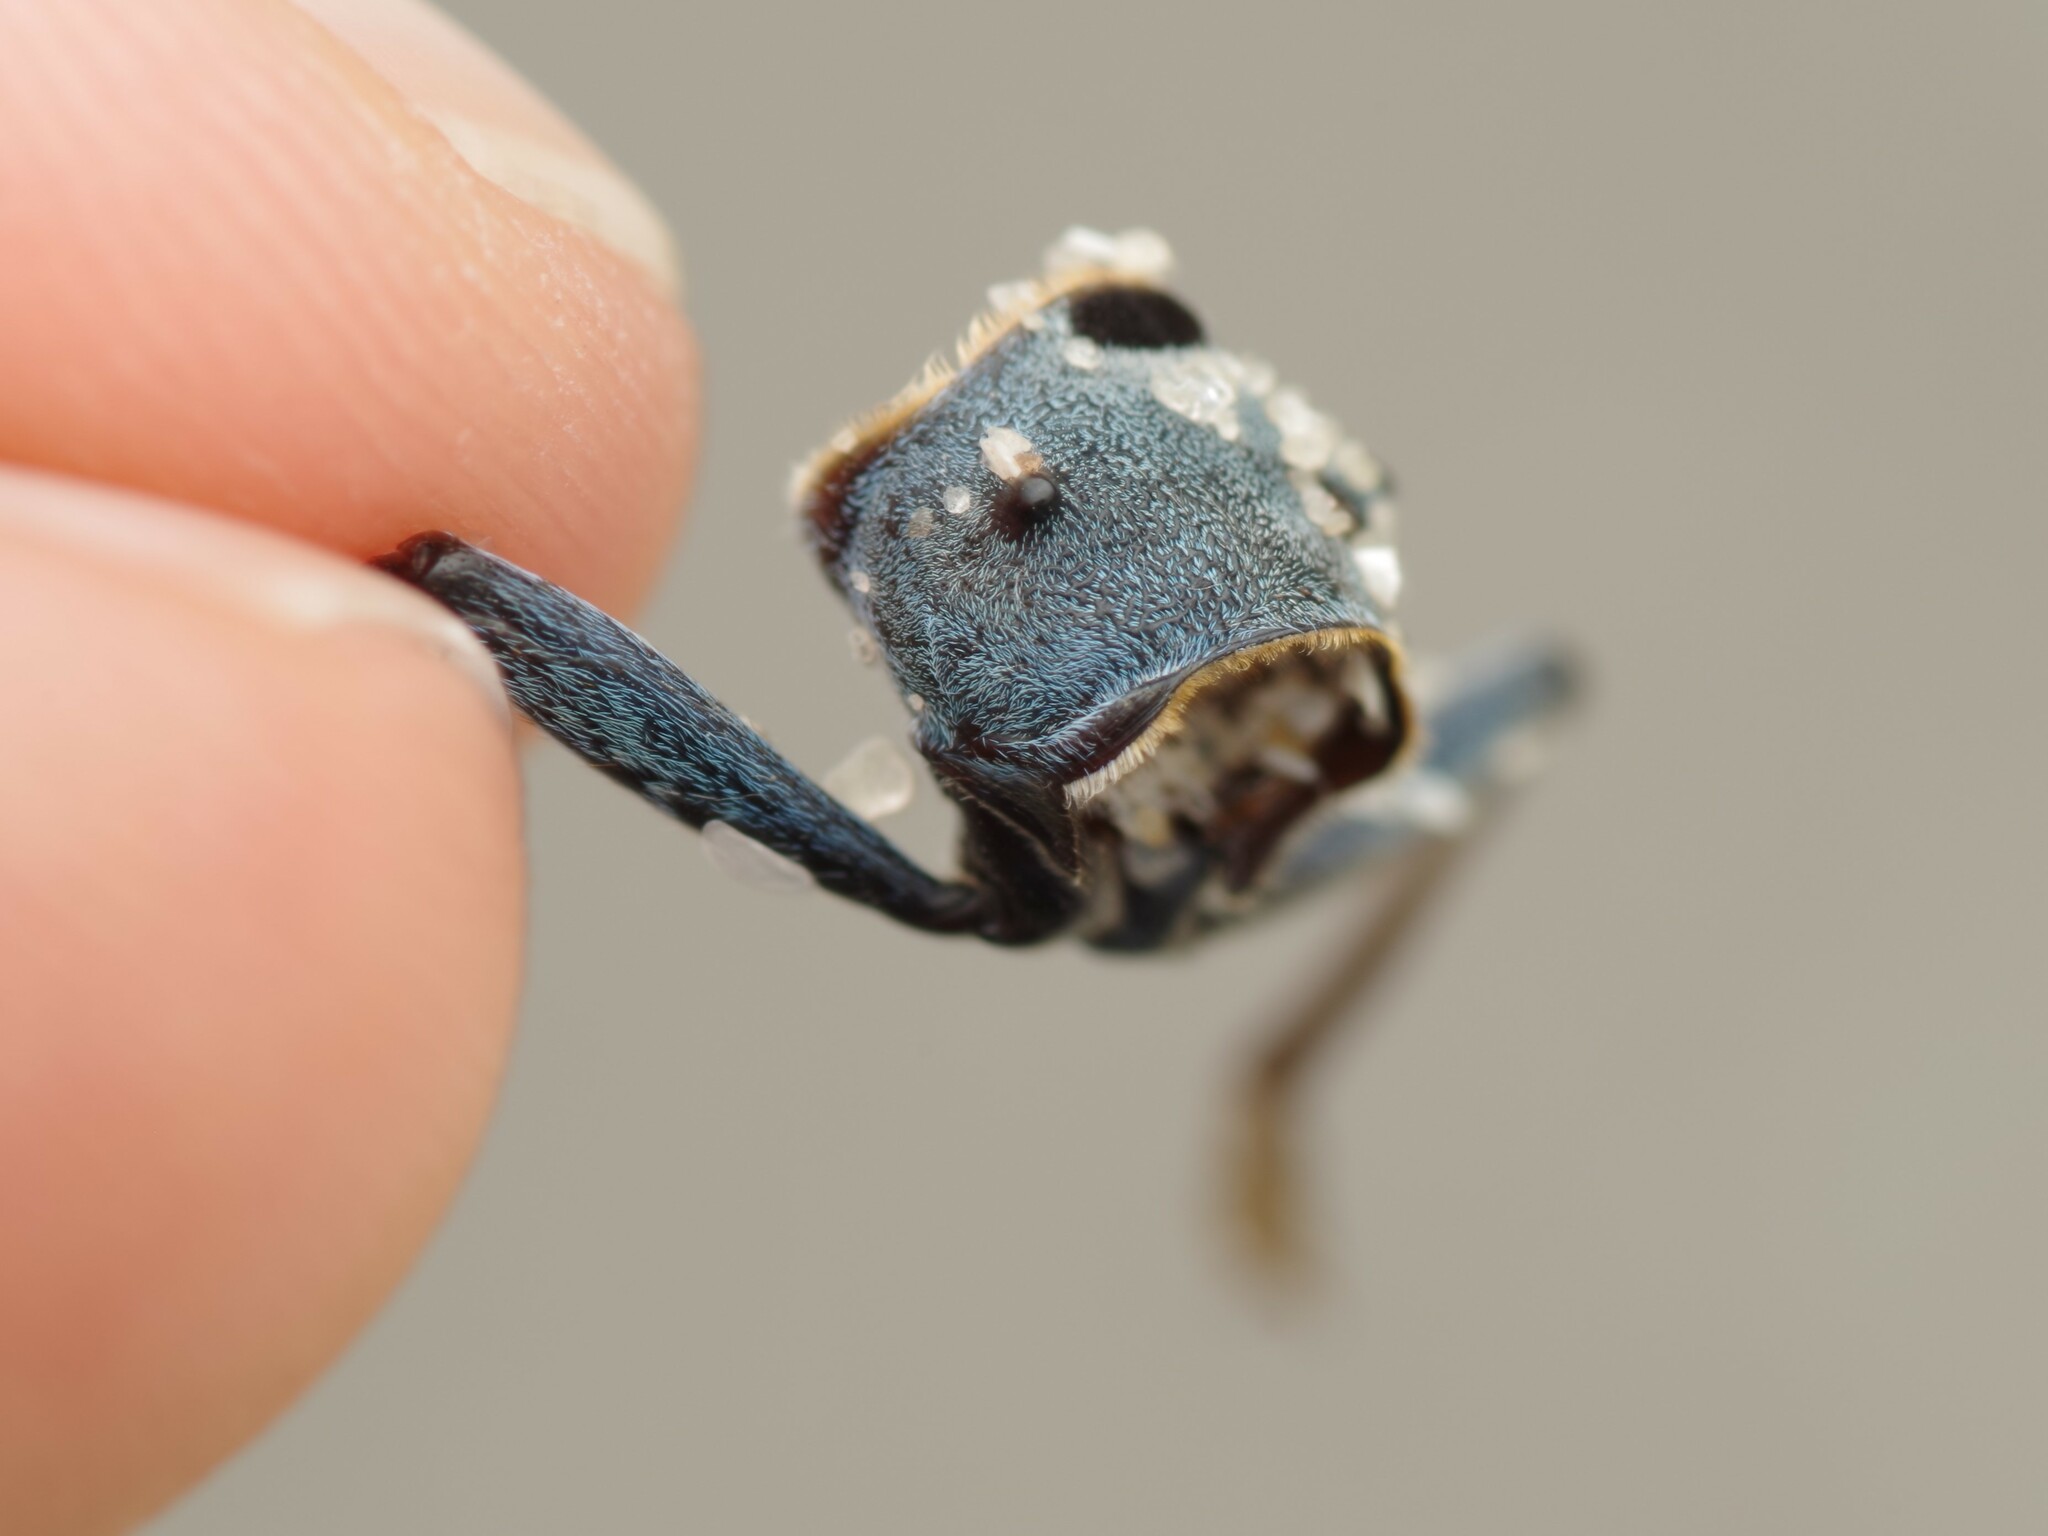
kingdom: Animalia
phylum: Arthropoda
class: Insecta
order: Coleoptera
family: Cerambycidae
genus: Rosalia
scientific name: Rosalia alpina
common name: Rosalia longicorn
